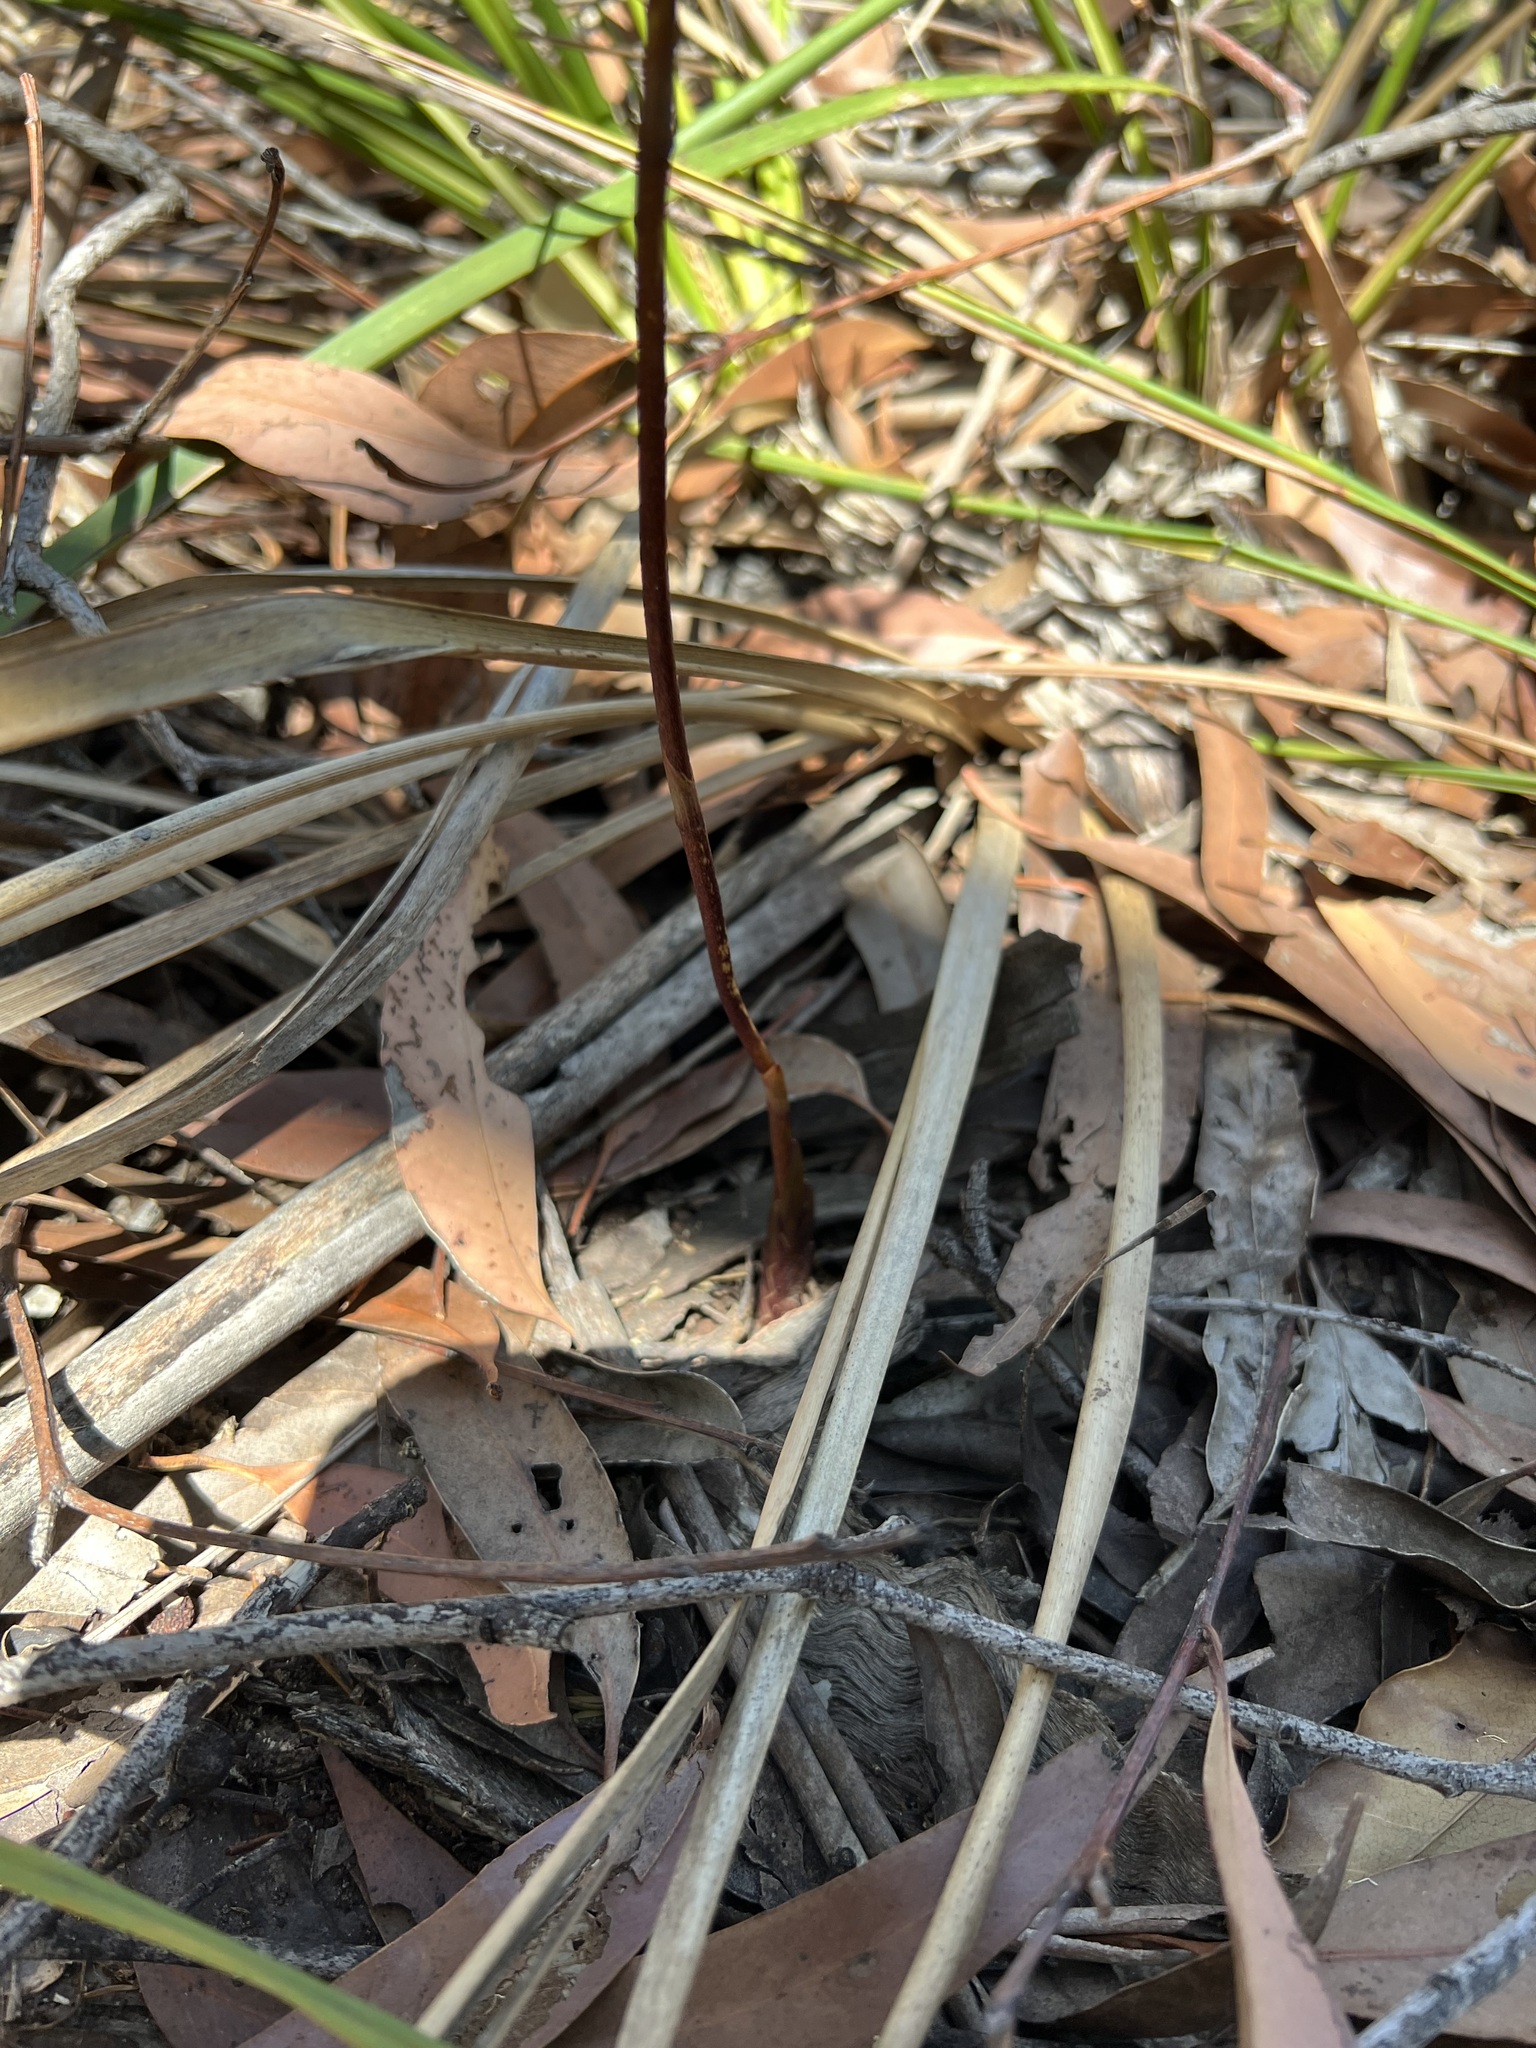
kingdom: Plantae
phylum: Tracheophyta
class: Liliopsida
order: Asparagales
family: Orchidaceae
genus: Dipodium
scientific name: Dipodium variegatum
